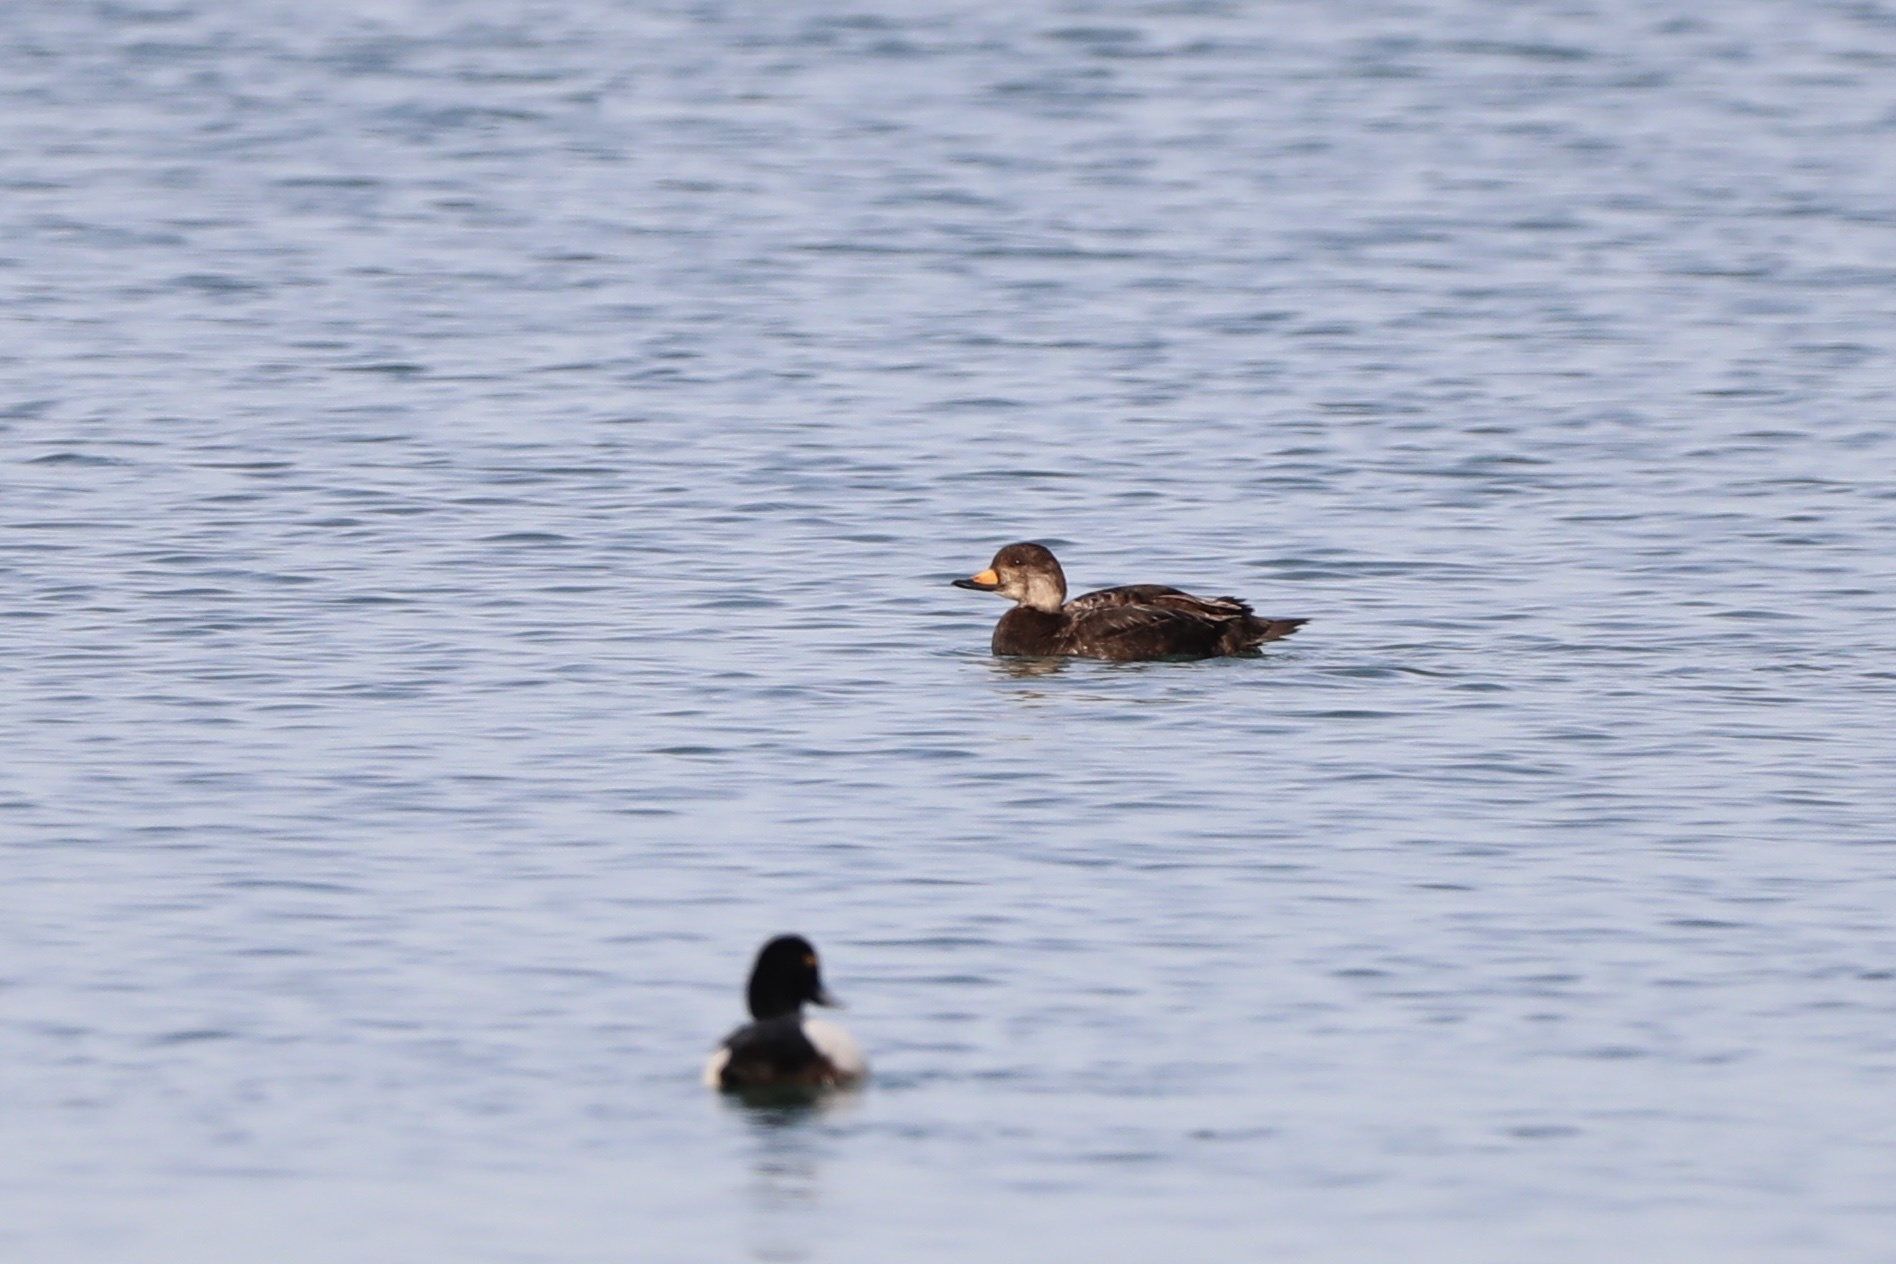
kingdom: Animalia
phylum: Chordata
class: Aves
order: Anseriformes
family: Anatidae
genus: Melanitta
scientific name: Melanitta americana
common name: Black scoter
